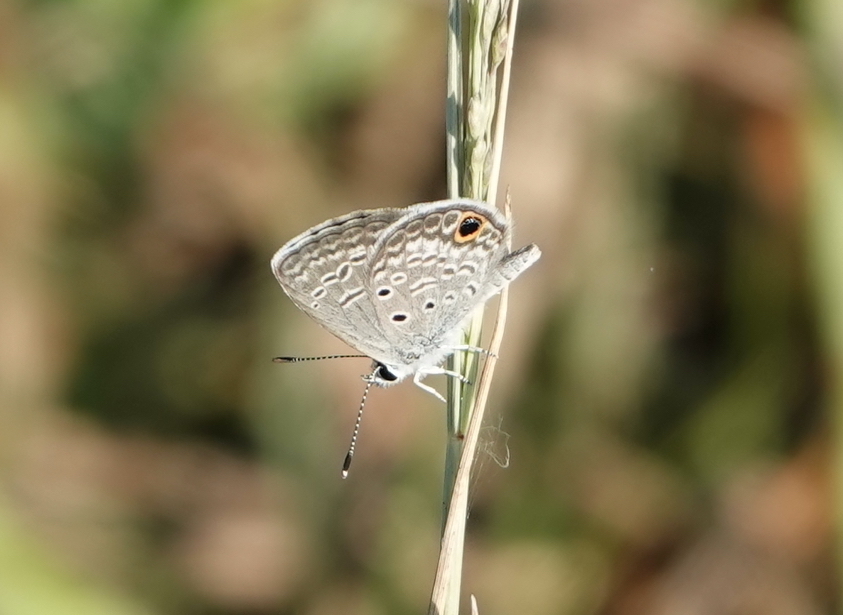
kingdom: Animalia
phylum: Arthropoda
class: Insecta
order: Lepidoptera
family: Lycaenidae
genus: Hemiargus
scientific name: Hemiargus ceraunus
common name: Ceraunus blue
